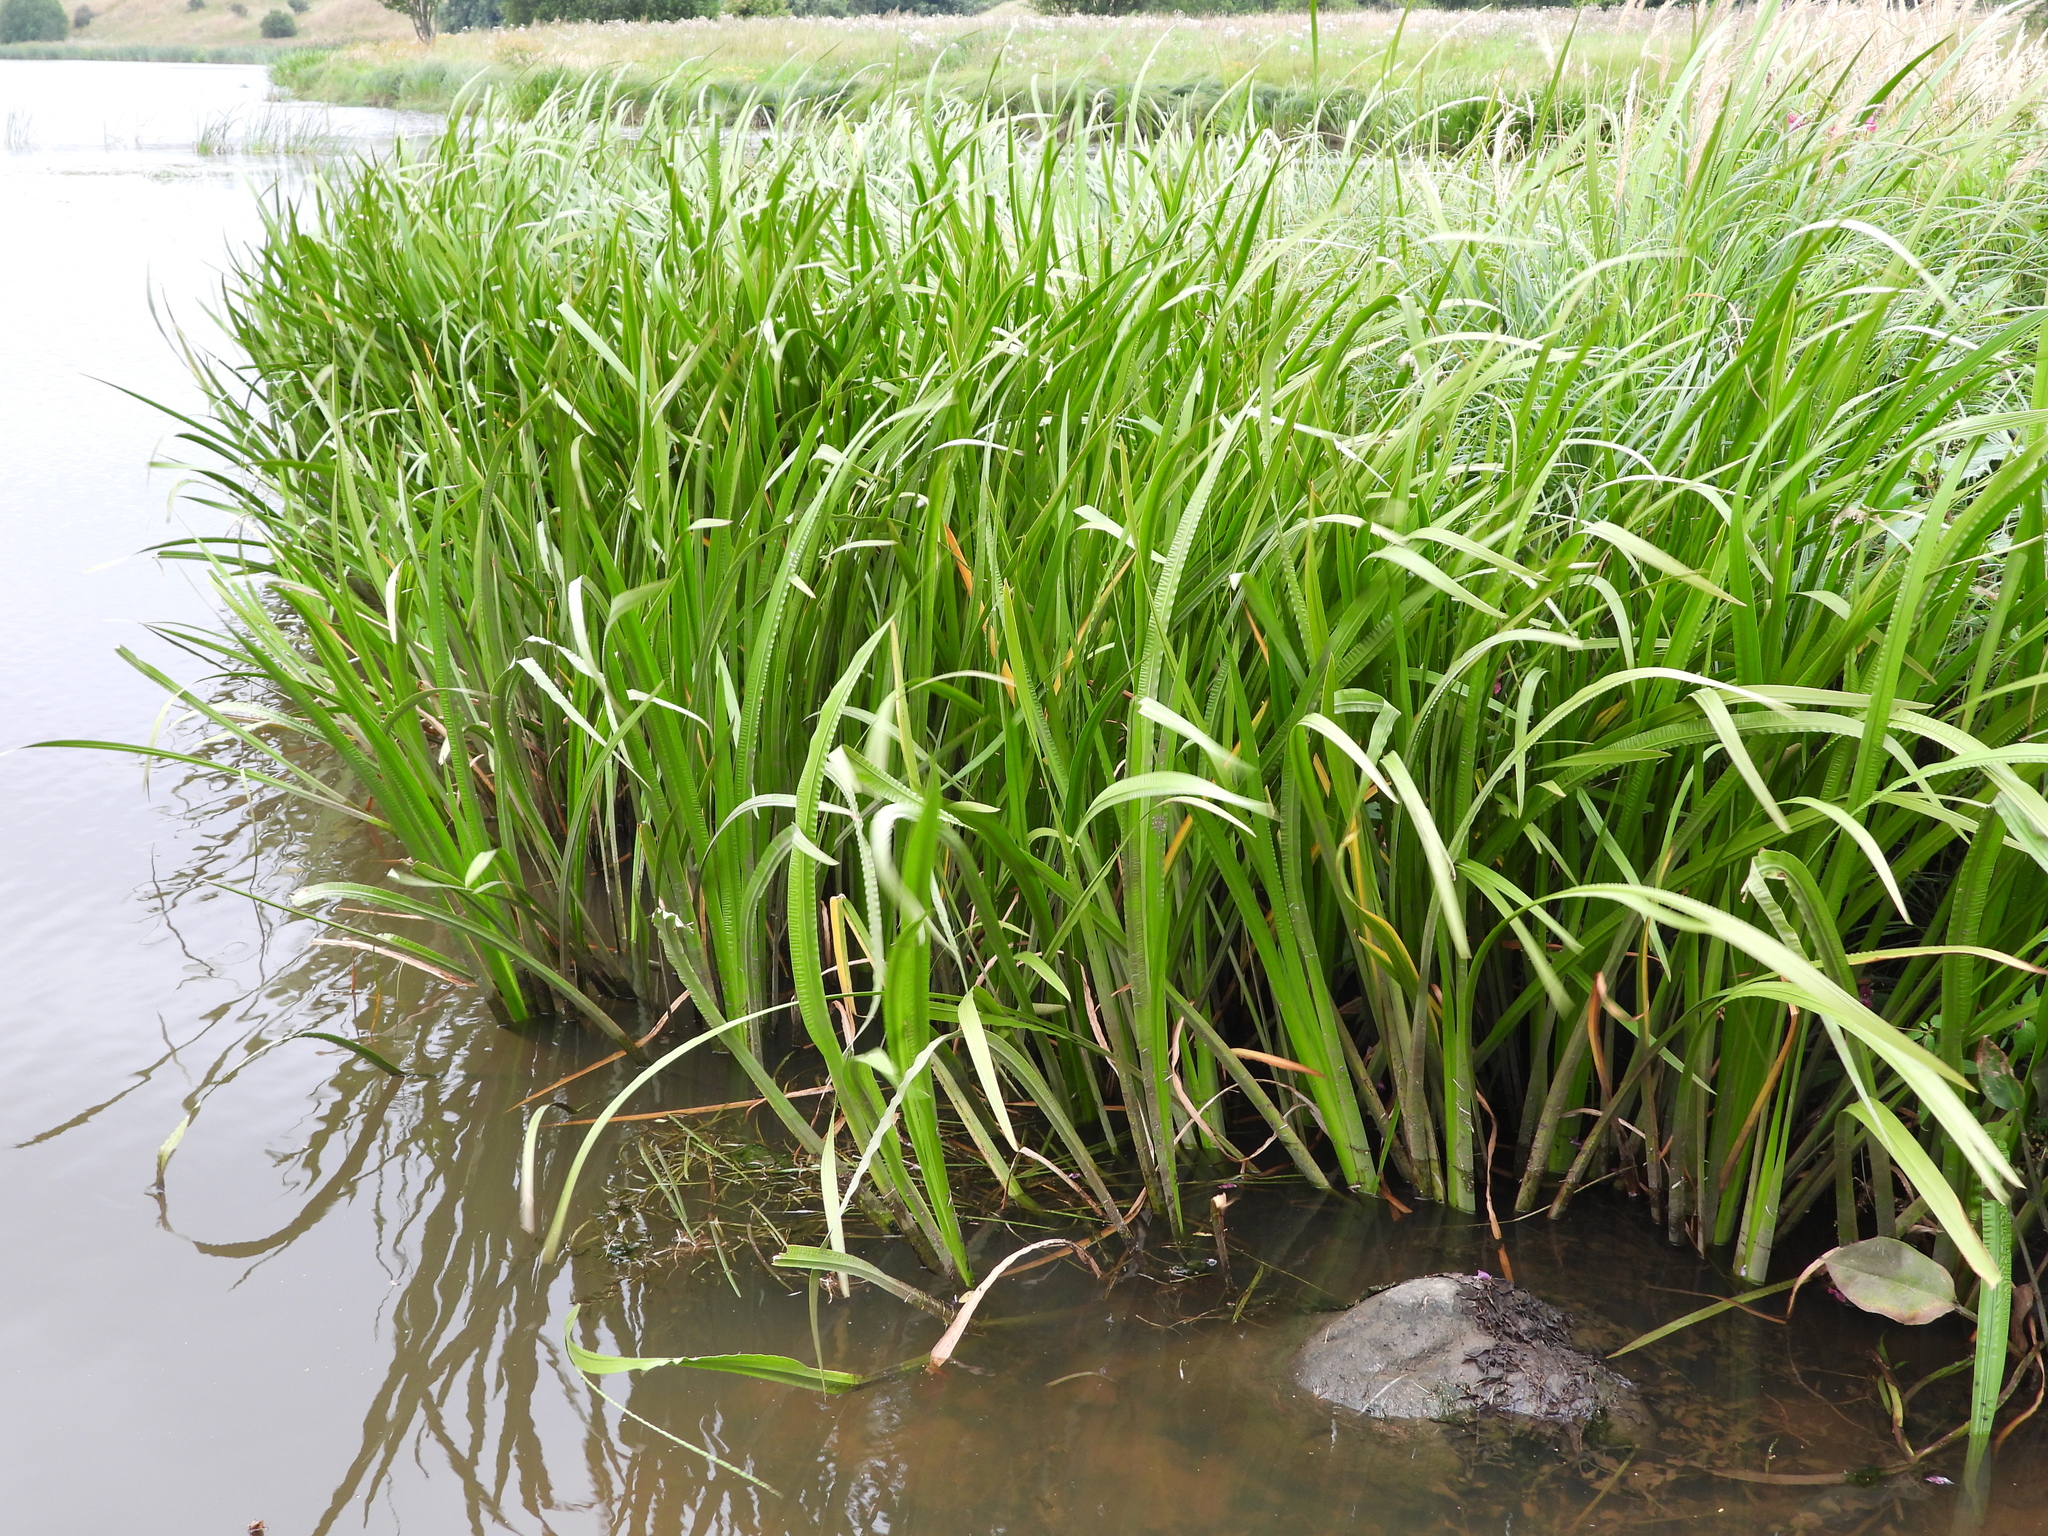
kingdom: Plantae
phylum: Tracheophyta
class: Liliopsida
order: Acorales
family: Acoraceae
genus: Acorus
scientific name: Acorus calamus
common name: Sweet-flag
